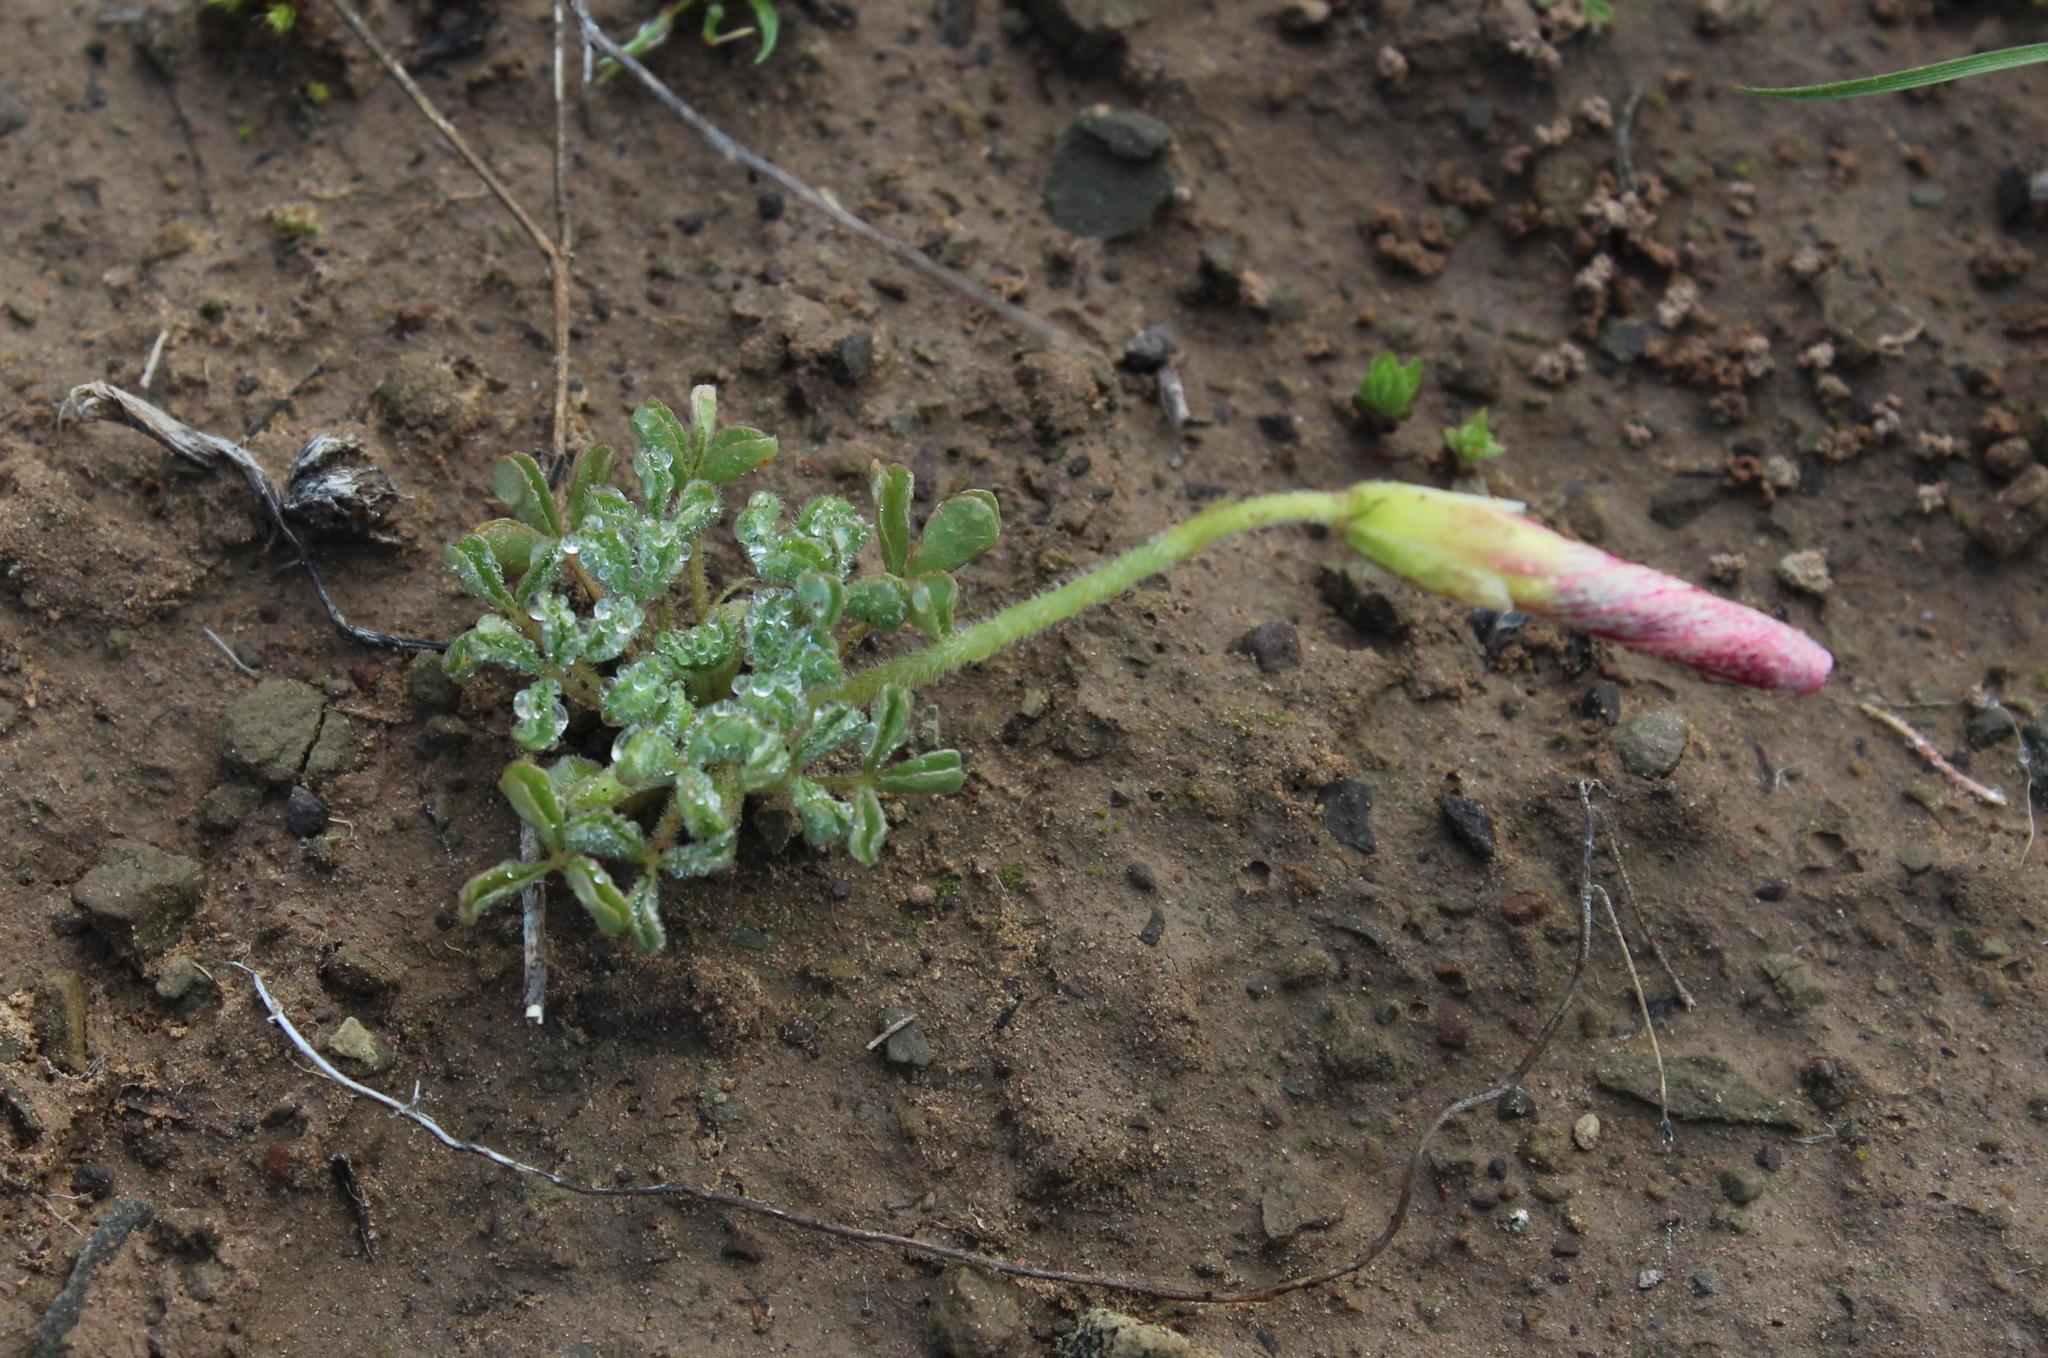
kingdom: Plantae
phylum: Tracheophyta
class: Magnoliopsida
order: Oxalidales
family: Oxalidaceae
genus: Oxalis
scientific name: Oxalis obtusa
